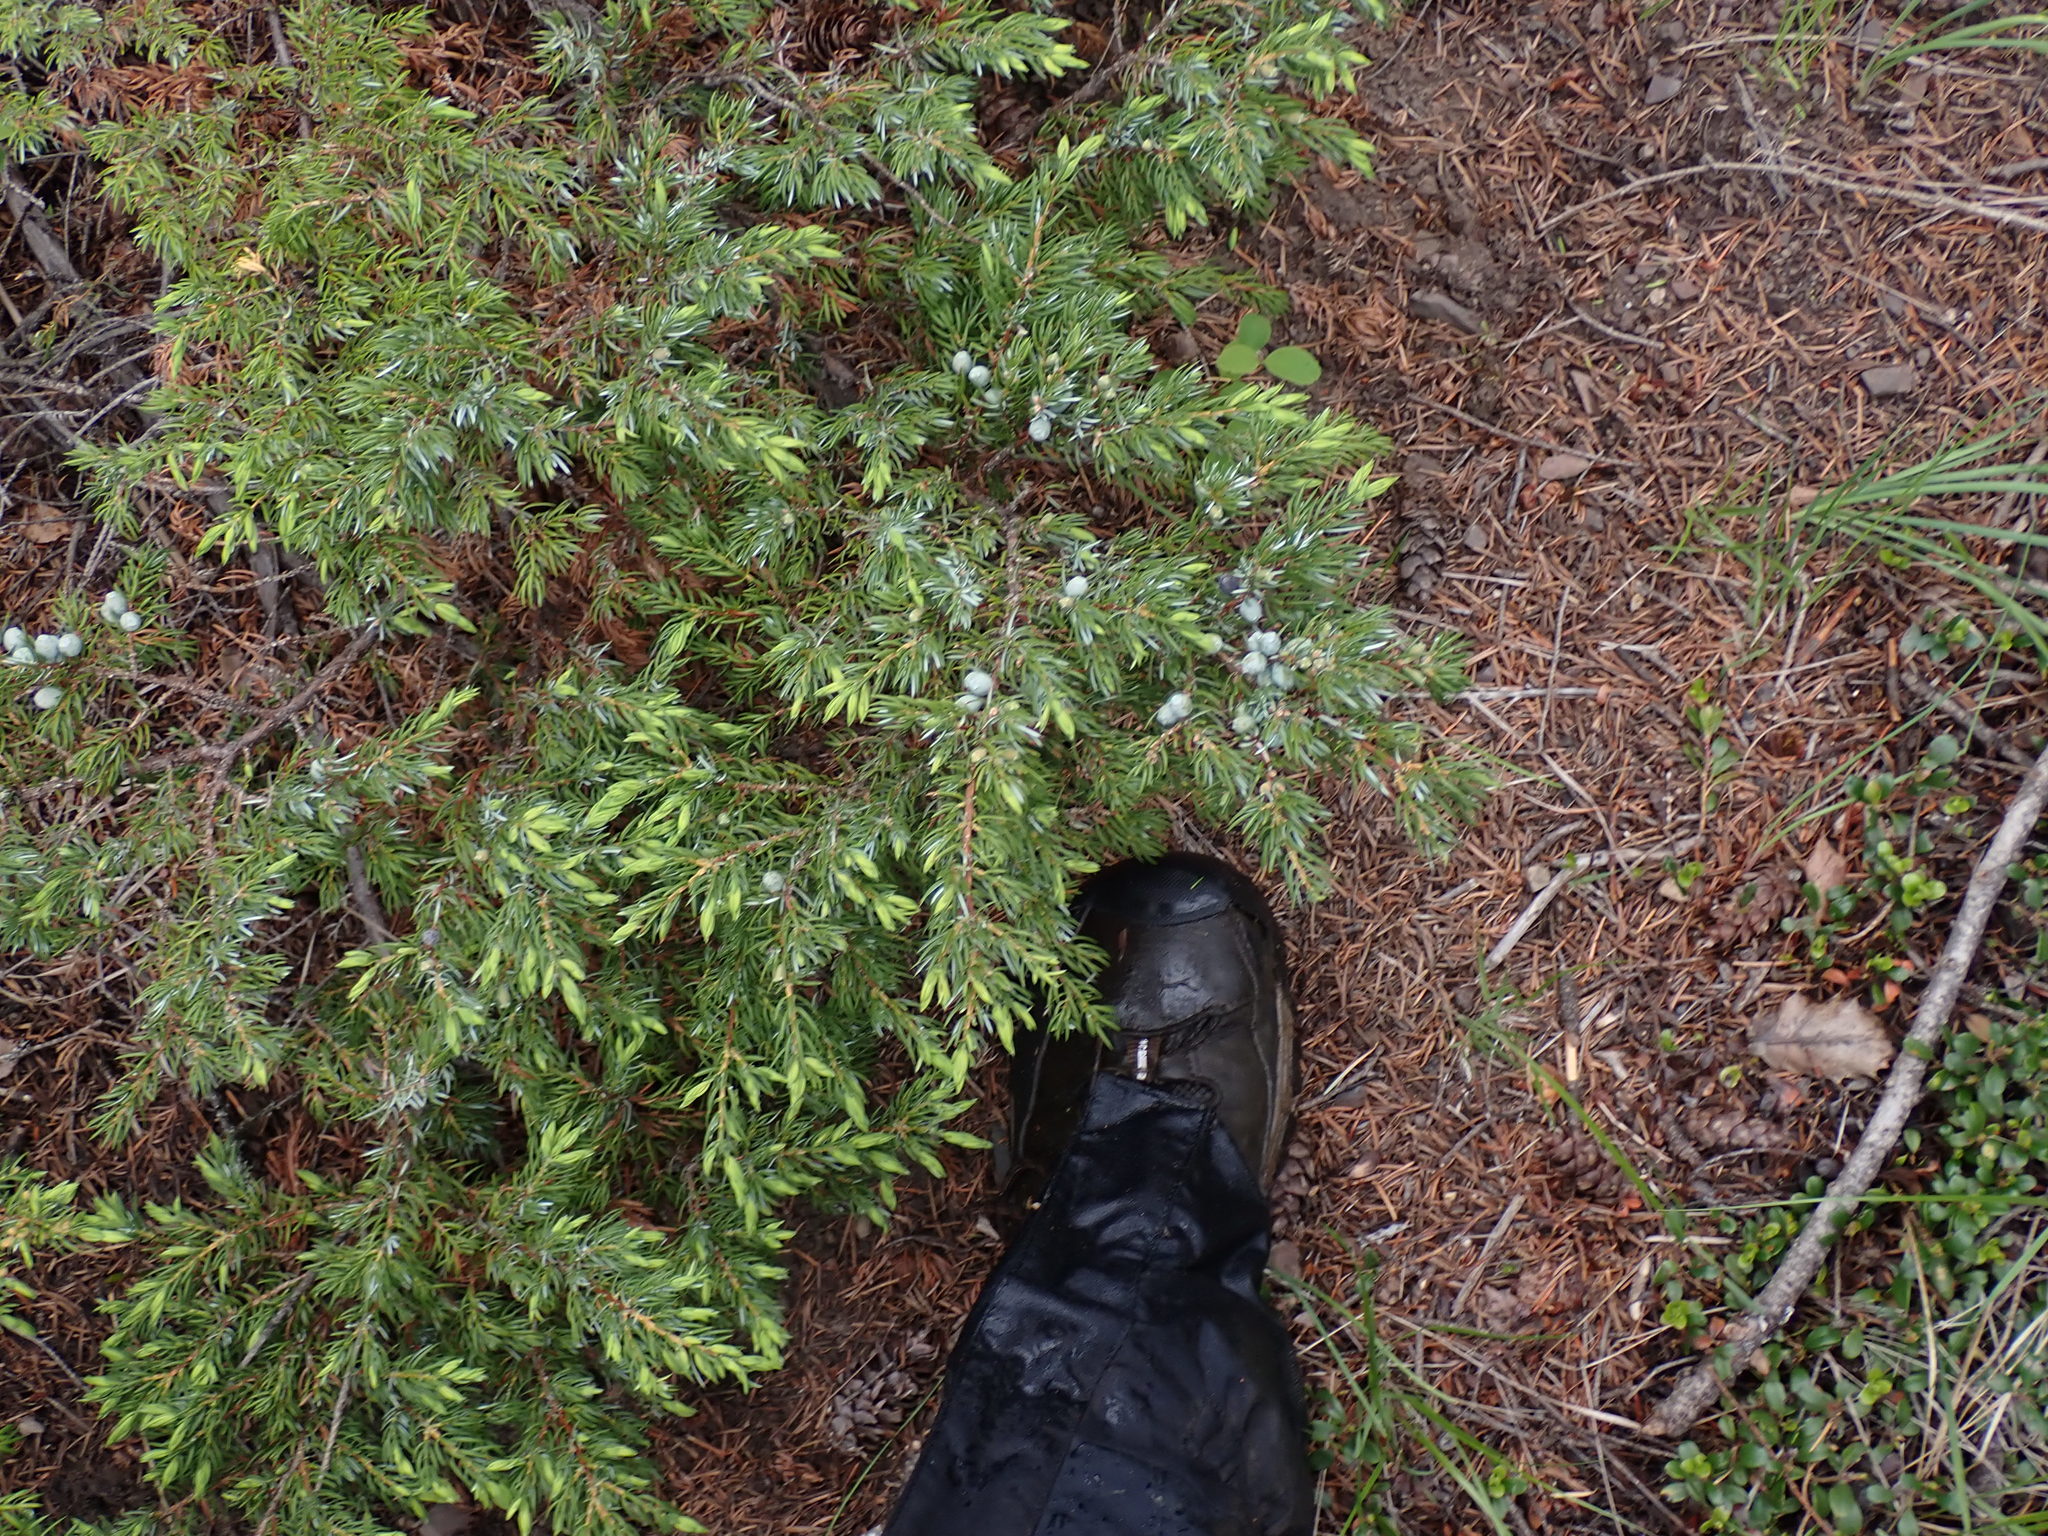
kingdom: Plantae
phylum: Tracheophyta
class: Pinopsida
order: Pinales
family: Cupressaceae
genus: Juniperus
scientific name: Juniperus communis
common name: Common juniper
